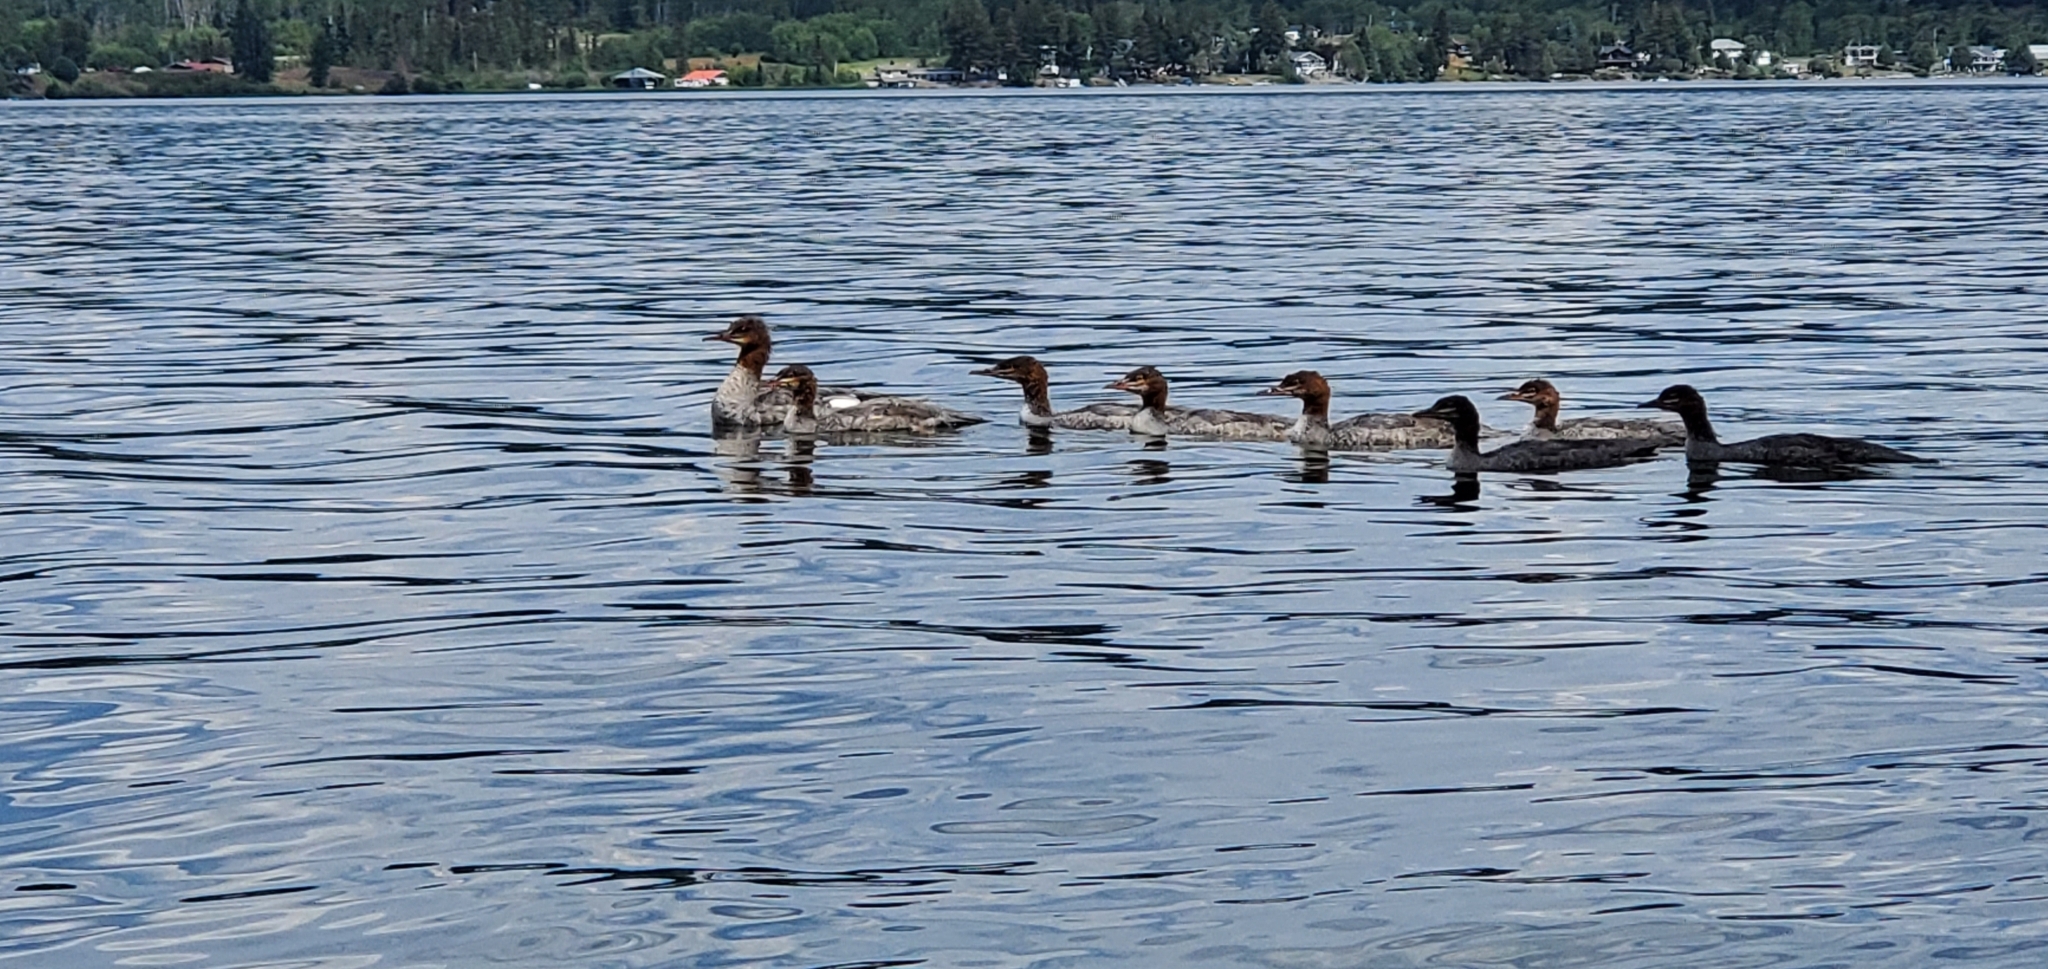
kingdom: Animalia
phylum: Chordata
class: Aves
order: Anseriformes
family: Anatidae
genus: Mergus
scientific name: Mergus merganser
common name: Common merganser
